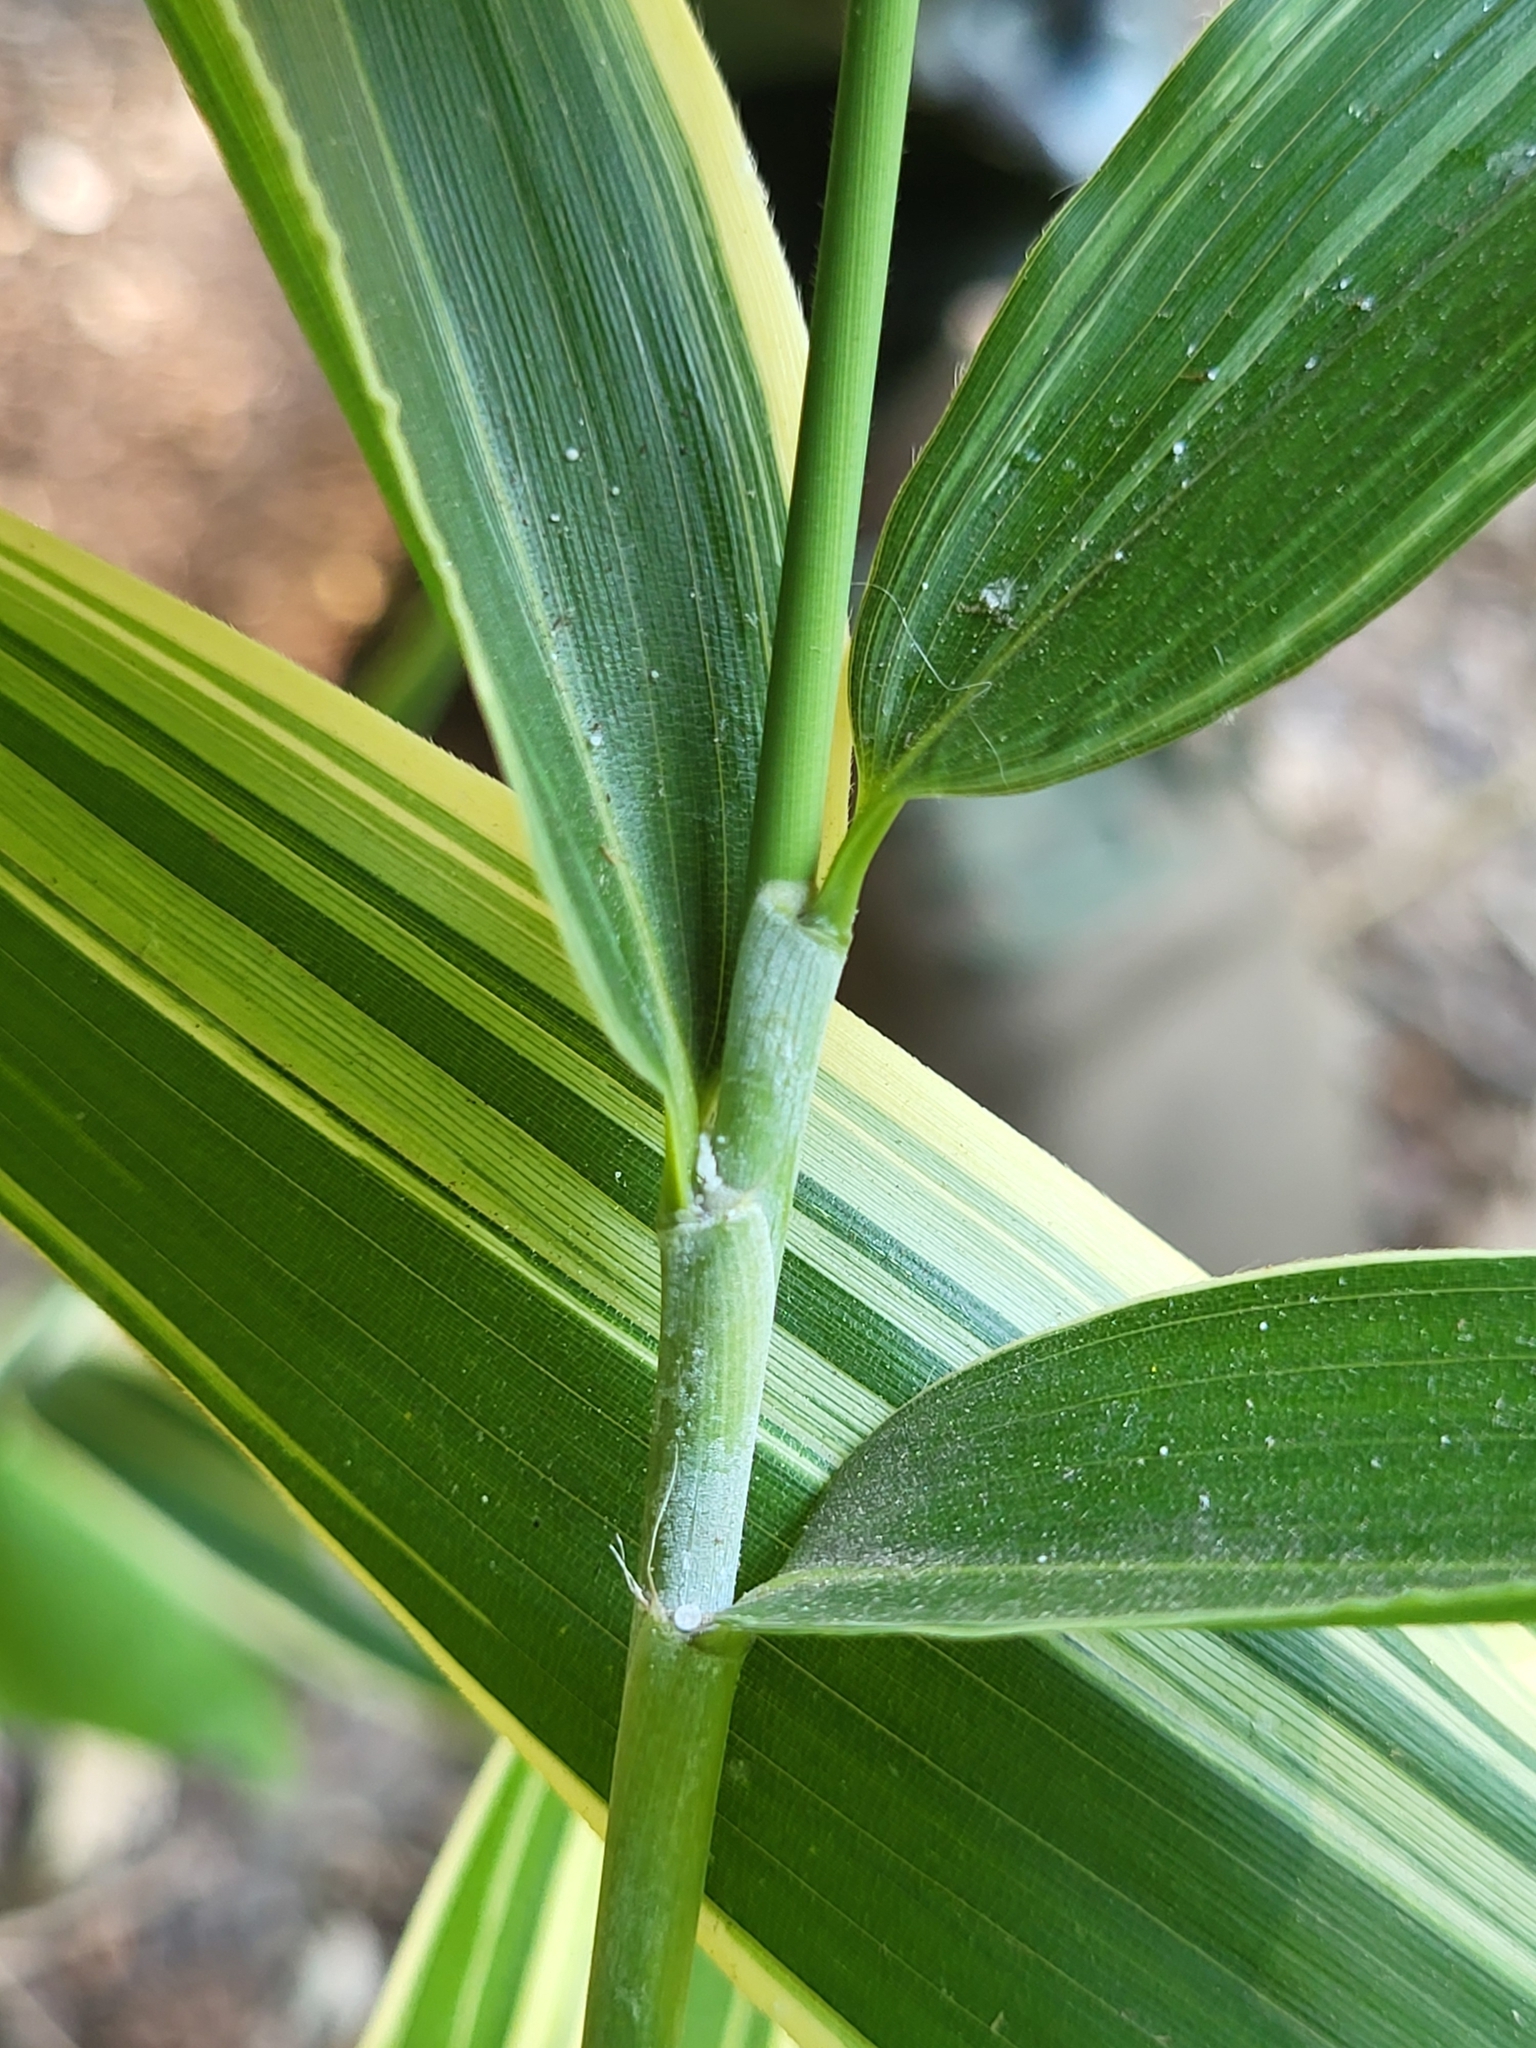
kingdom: Plantae
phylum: Tracheophyta
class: Liliopsida
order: Poales
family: Poaceae
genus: Pseudosasa
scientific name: Pseudosasa japonica
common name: Arrow bamboo
